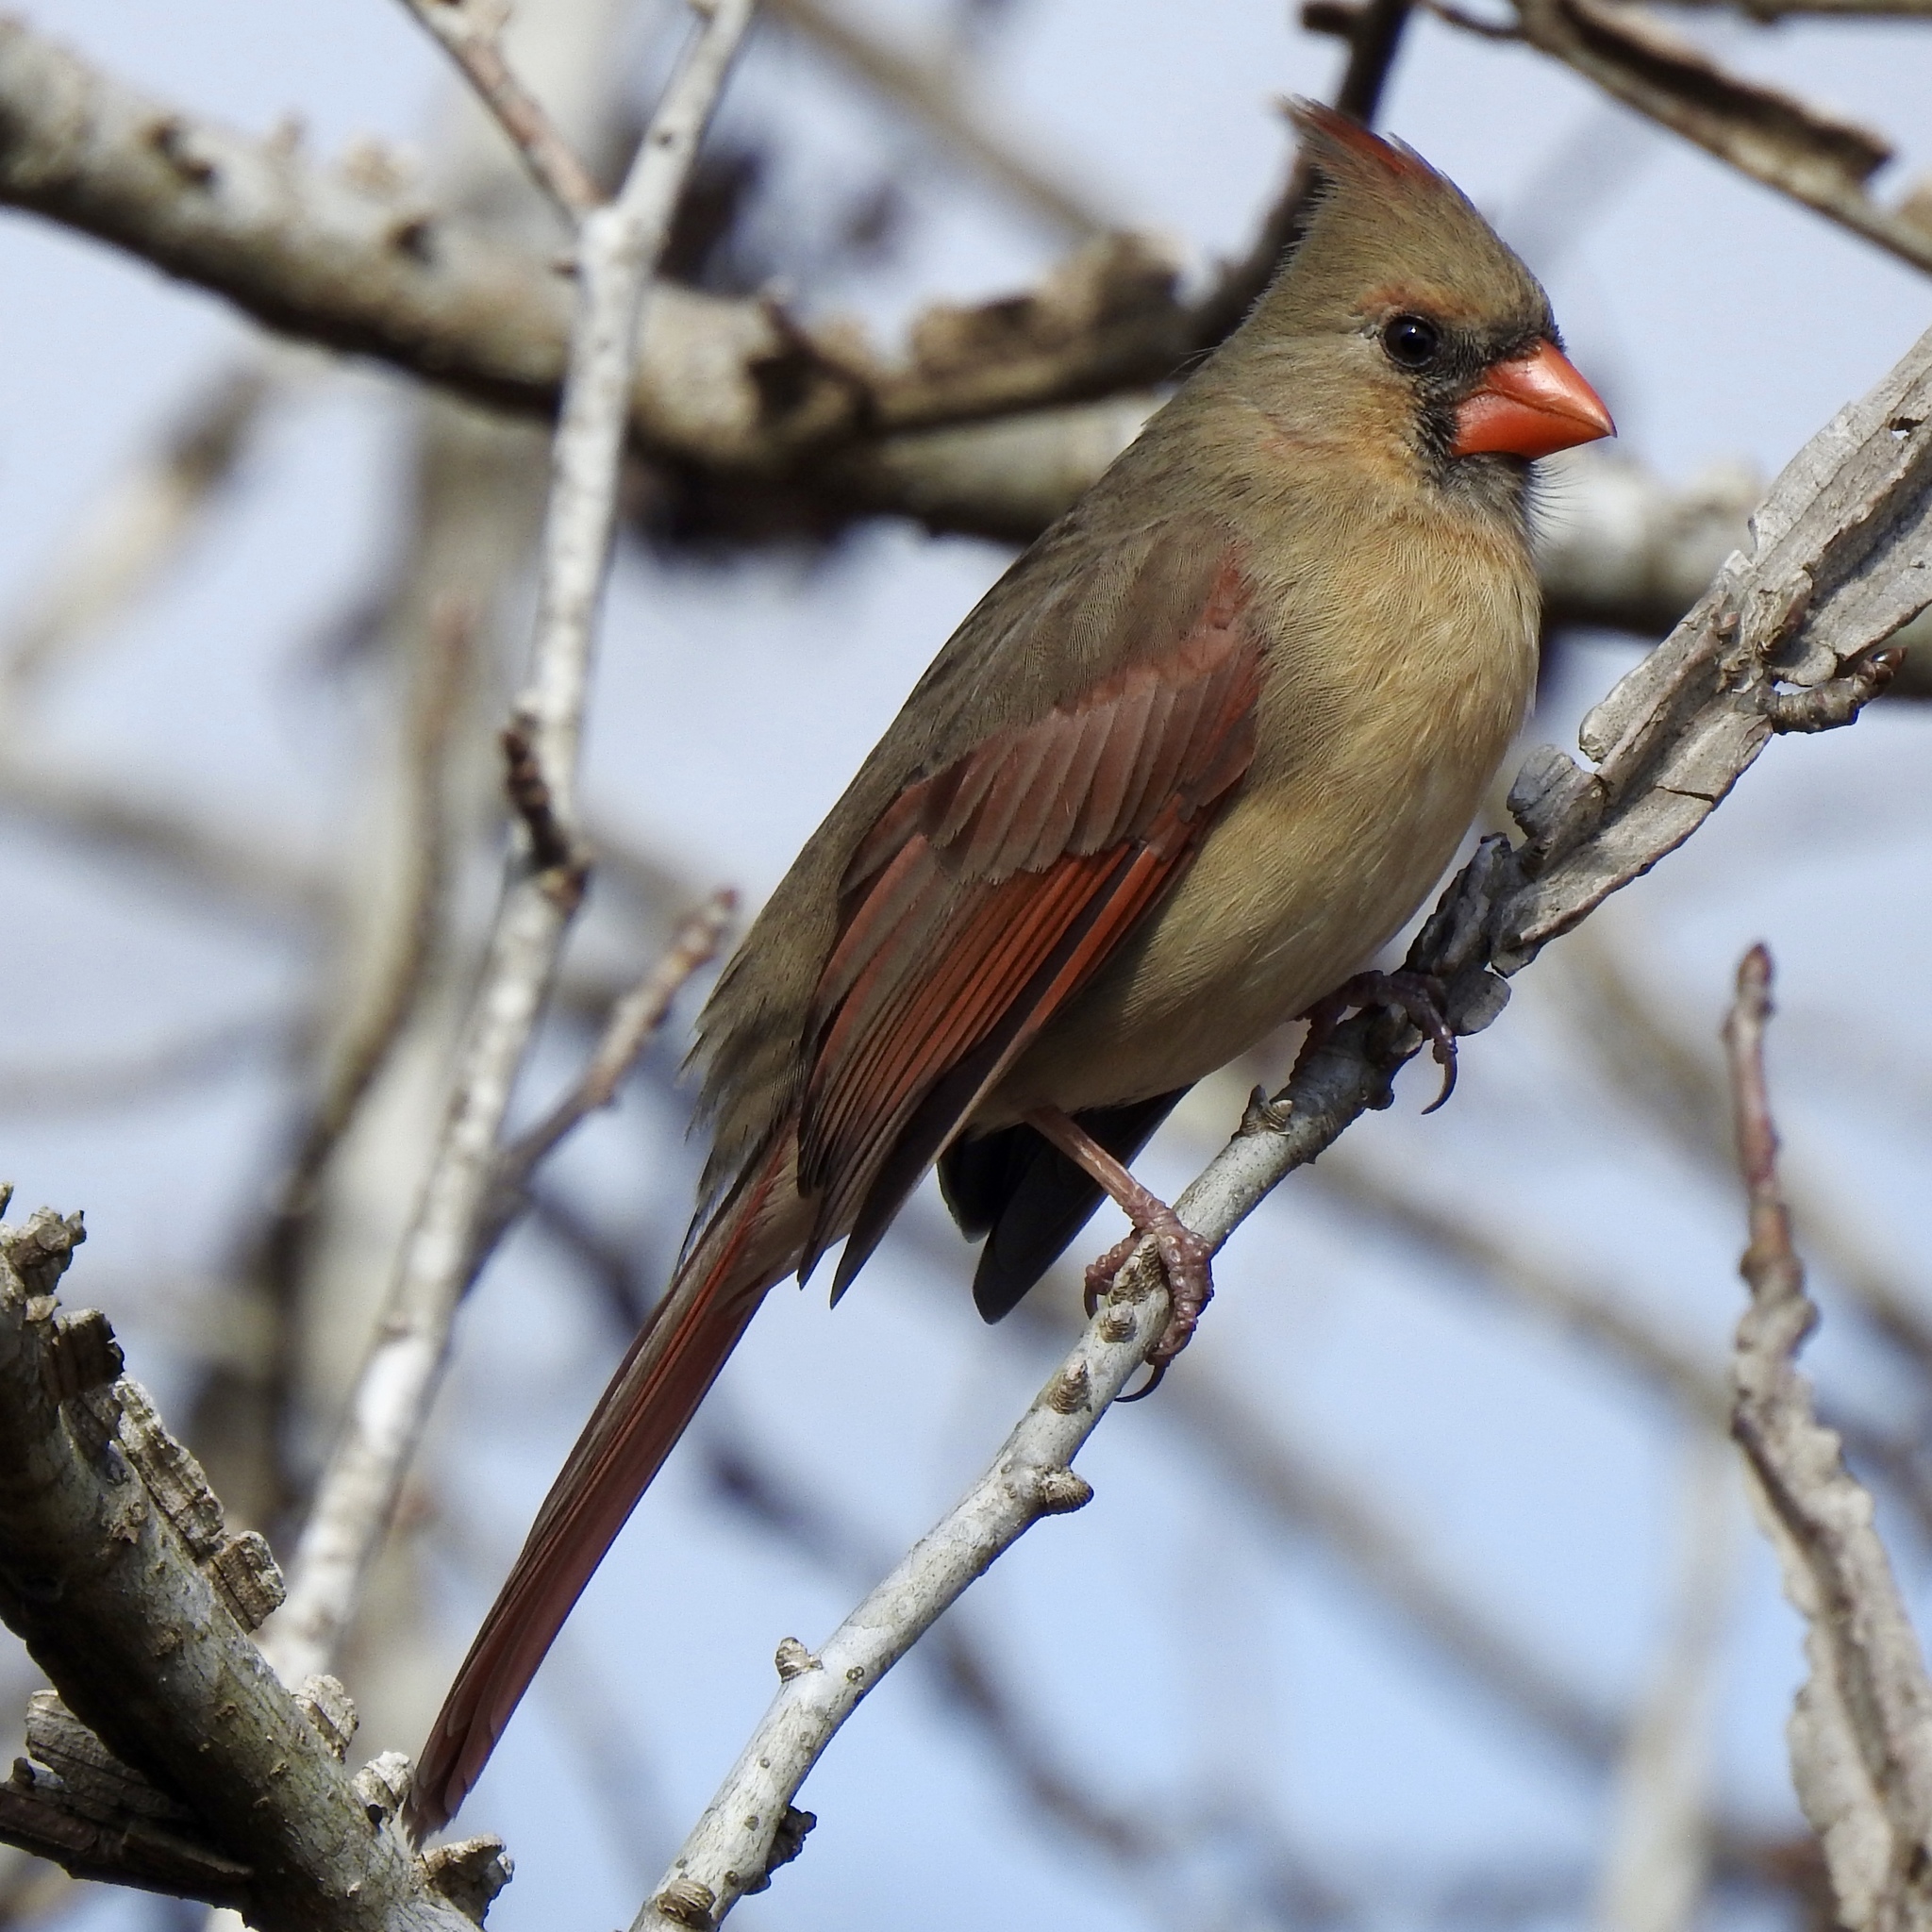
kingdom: Animalia
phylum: Chordata
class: Aves
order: Passeriformes
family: Cardinalidae
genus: Cardinalis
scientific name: Cardinalis cardinalis
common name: Northern cardinal
